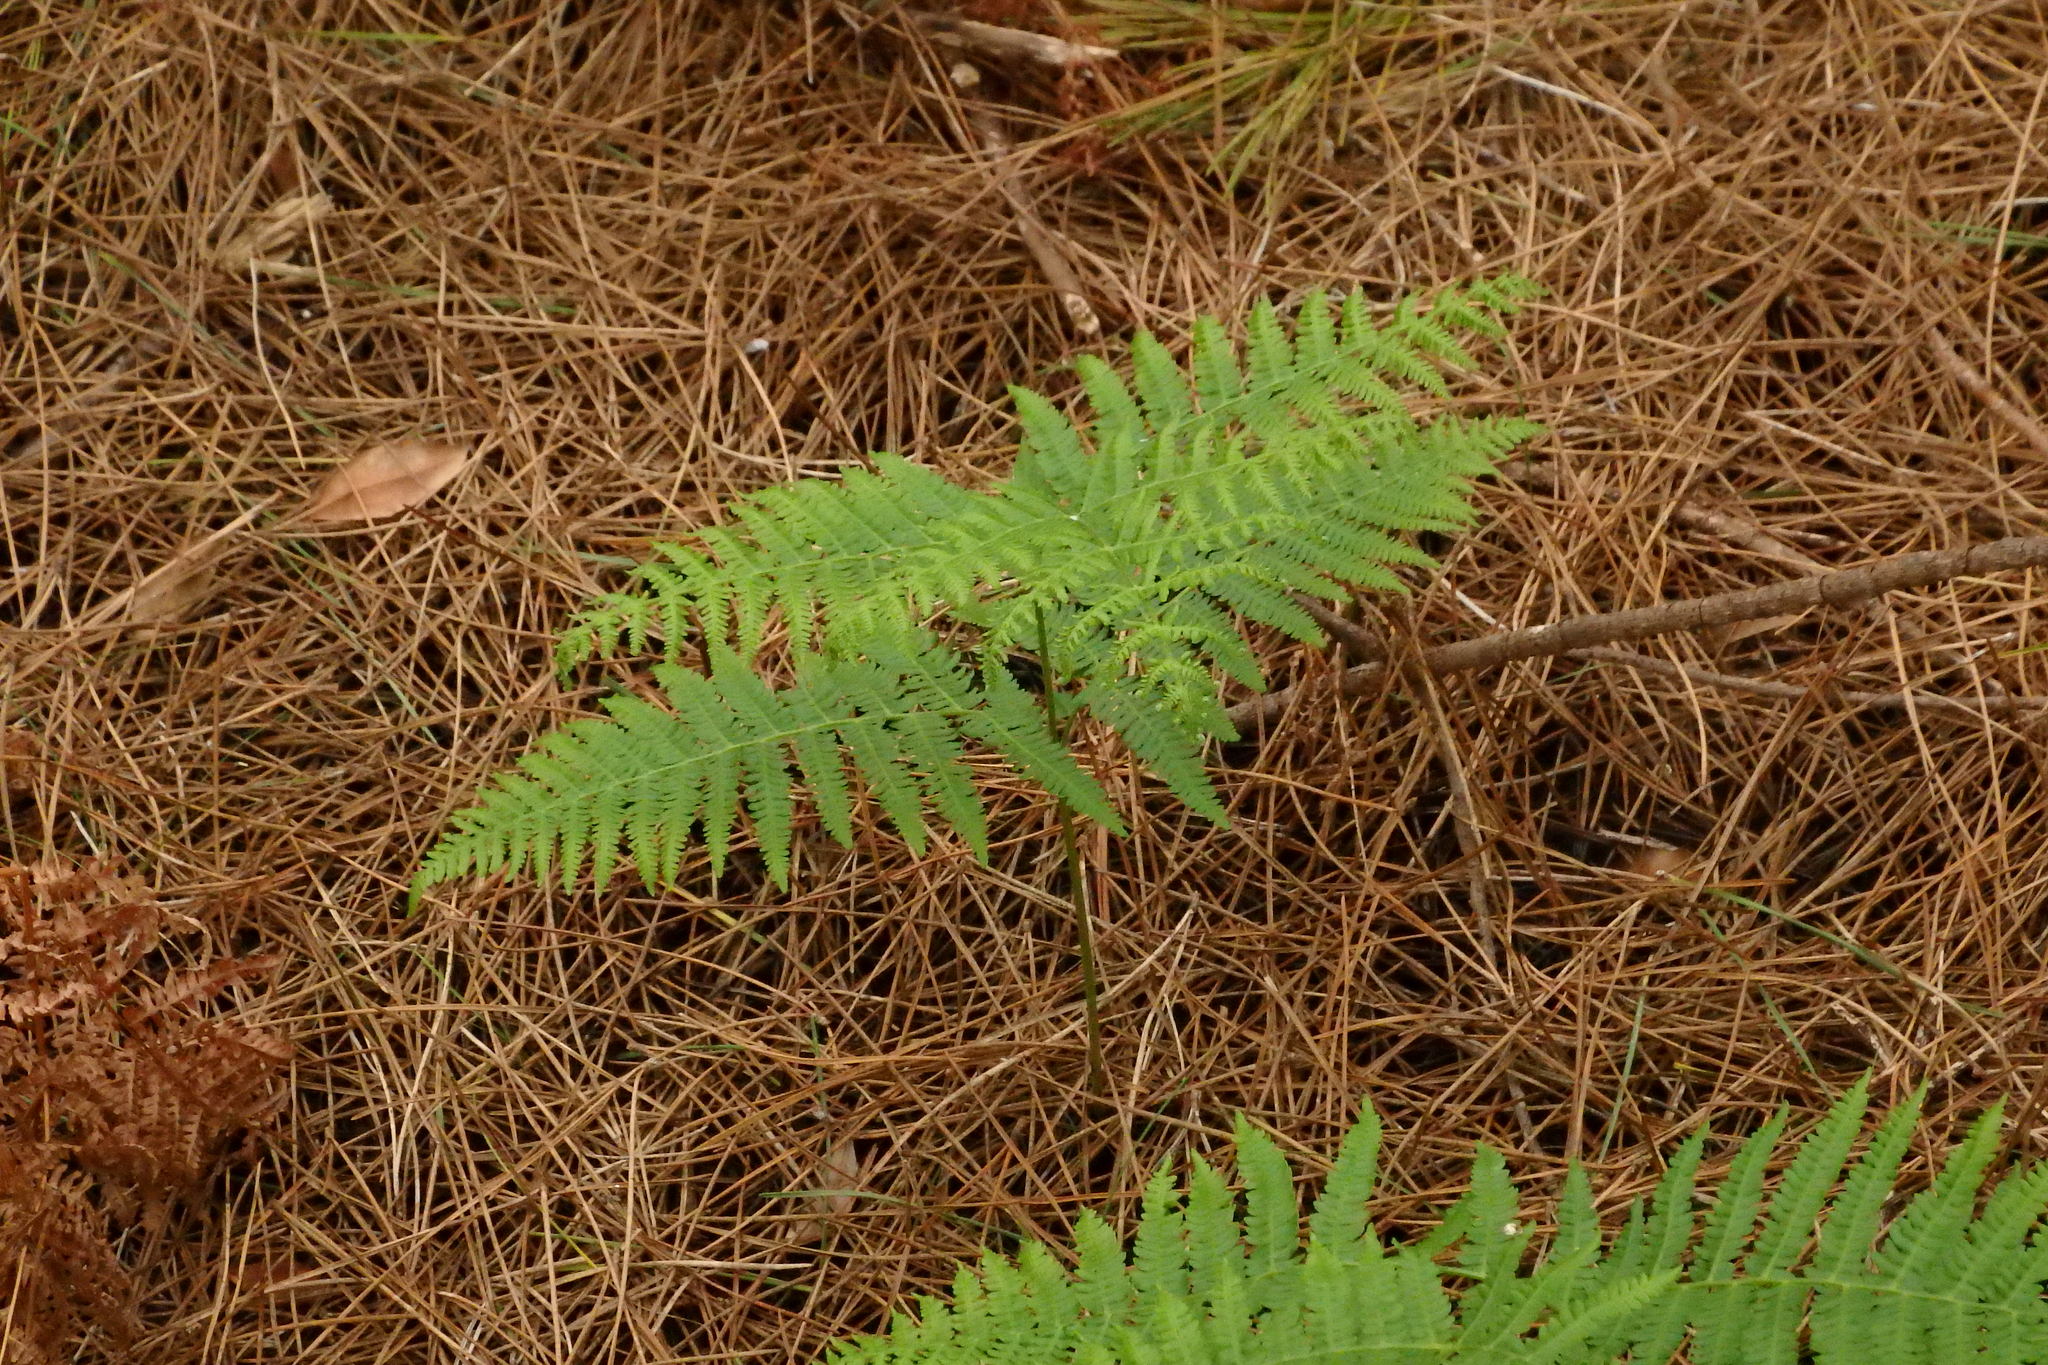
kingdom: Plantae
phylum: Tracheophyta
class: Polypodiopsida
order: Polypodiales
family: Dennstaedtiaceae
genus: Pteridium
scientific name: Pteridium aquilinum
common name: Bracken
